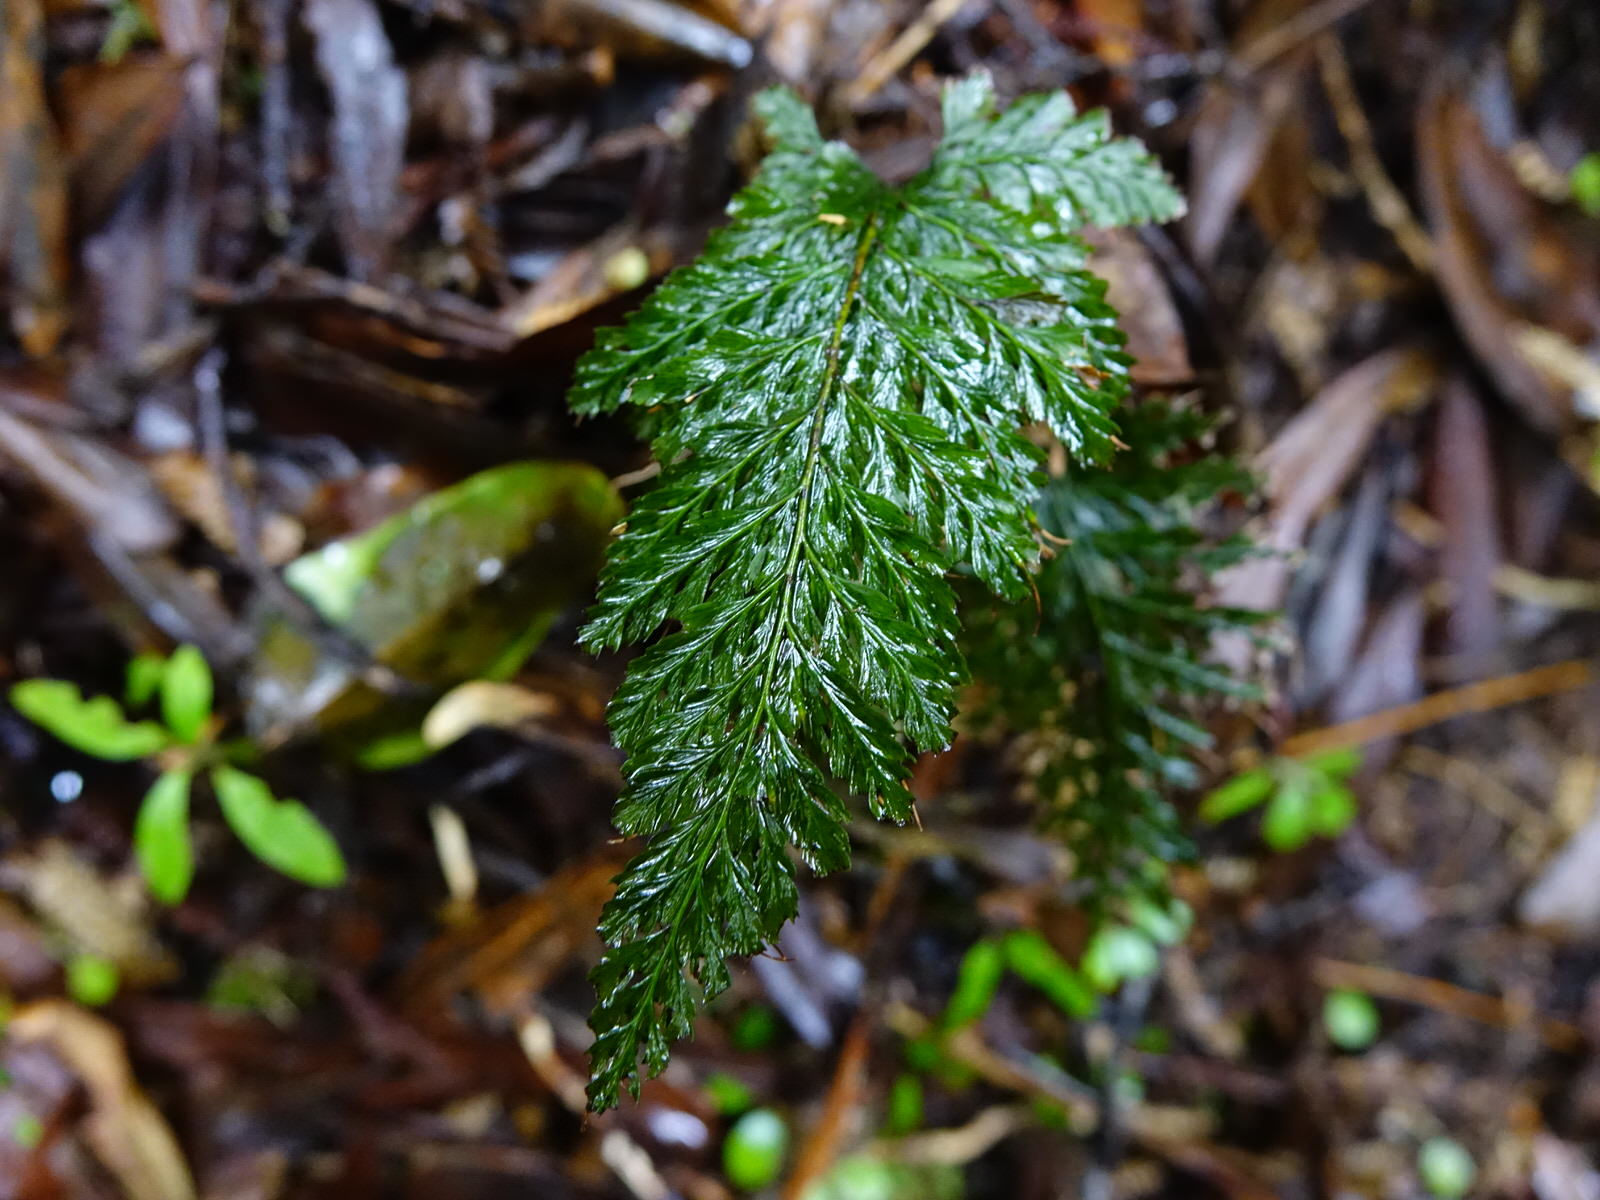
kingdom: Plantae
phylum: Tracheophyta
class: Polypodiopsida
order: Hymenophyllales
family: Hymenophyllaceae
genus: Abrodictyum
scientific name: Abrodictyum elongatum
